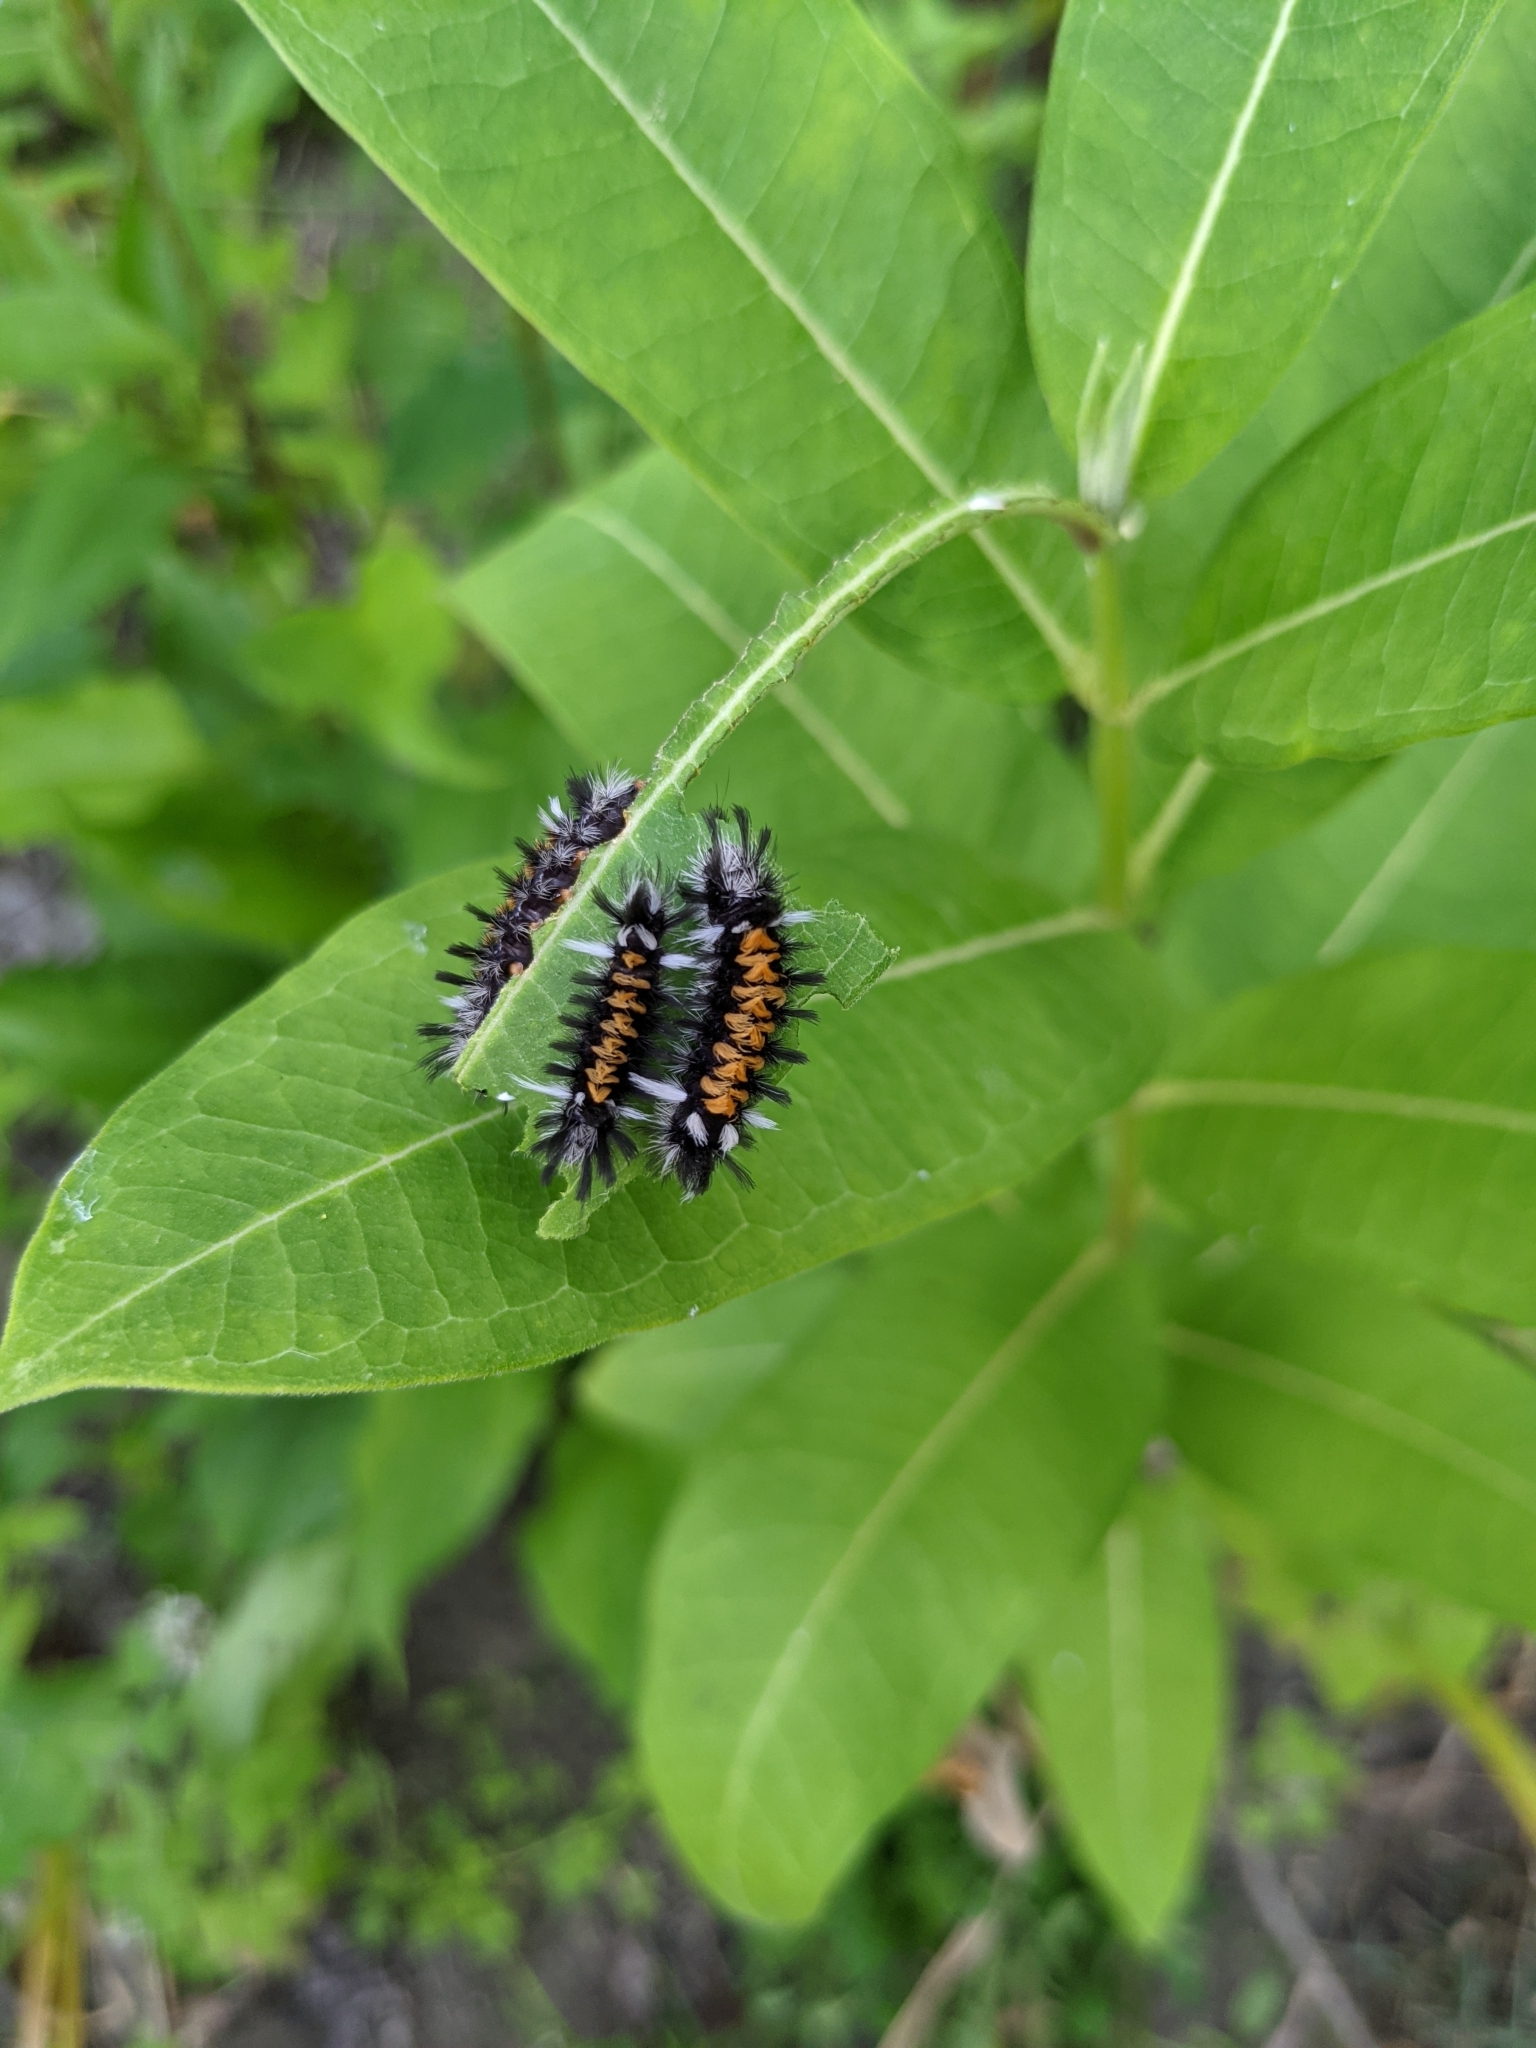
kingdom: Animalia
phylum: Arthropoda
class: Insecta
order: Lepidoptera
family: Erebidae
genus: Euchaetes
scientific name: Euchaetes egle
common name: Milkweed tussock moth
